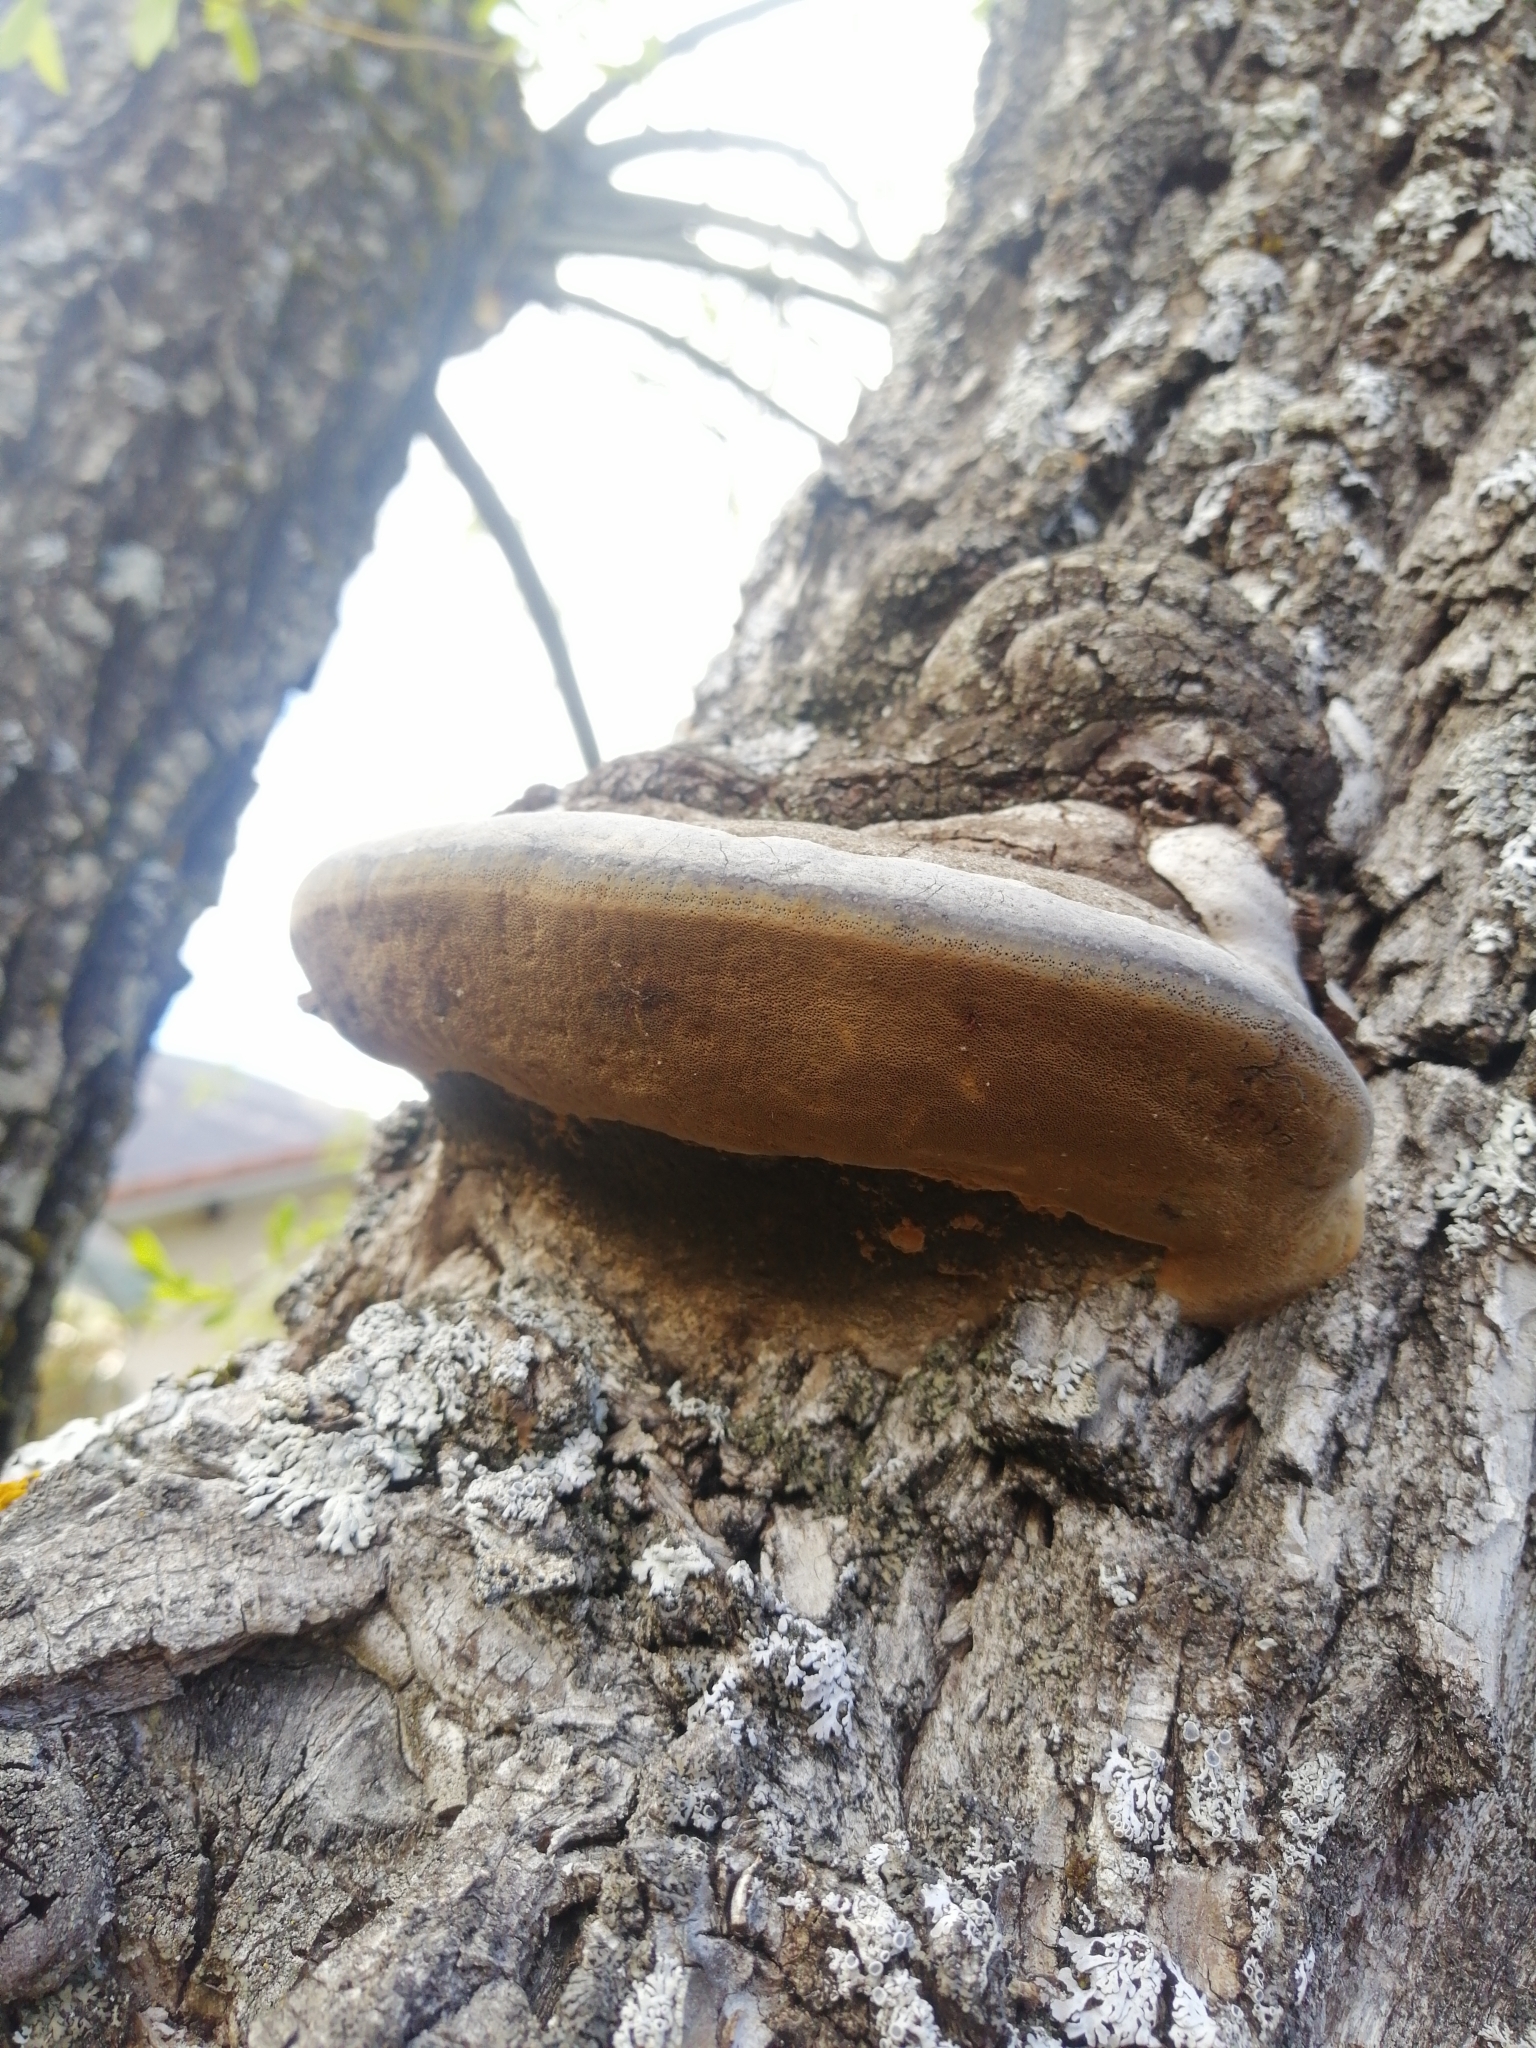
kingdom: Fungi
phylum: Basidiomycota
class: Agaricomycetes
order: Polyporales
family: Polyporaceae
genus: Fomes
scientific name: Fomes fomentarius
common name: Hoof fungus
